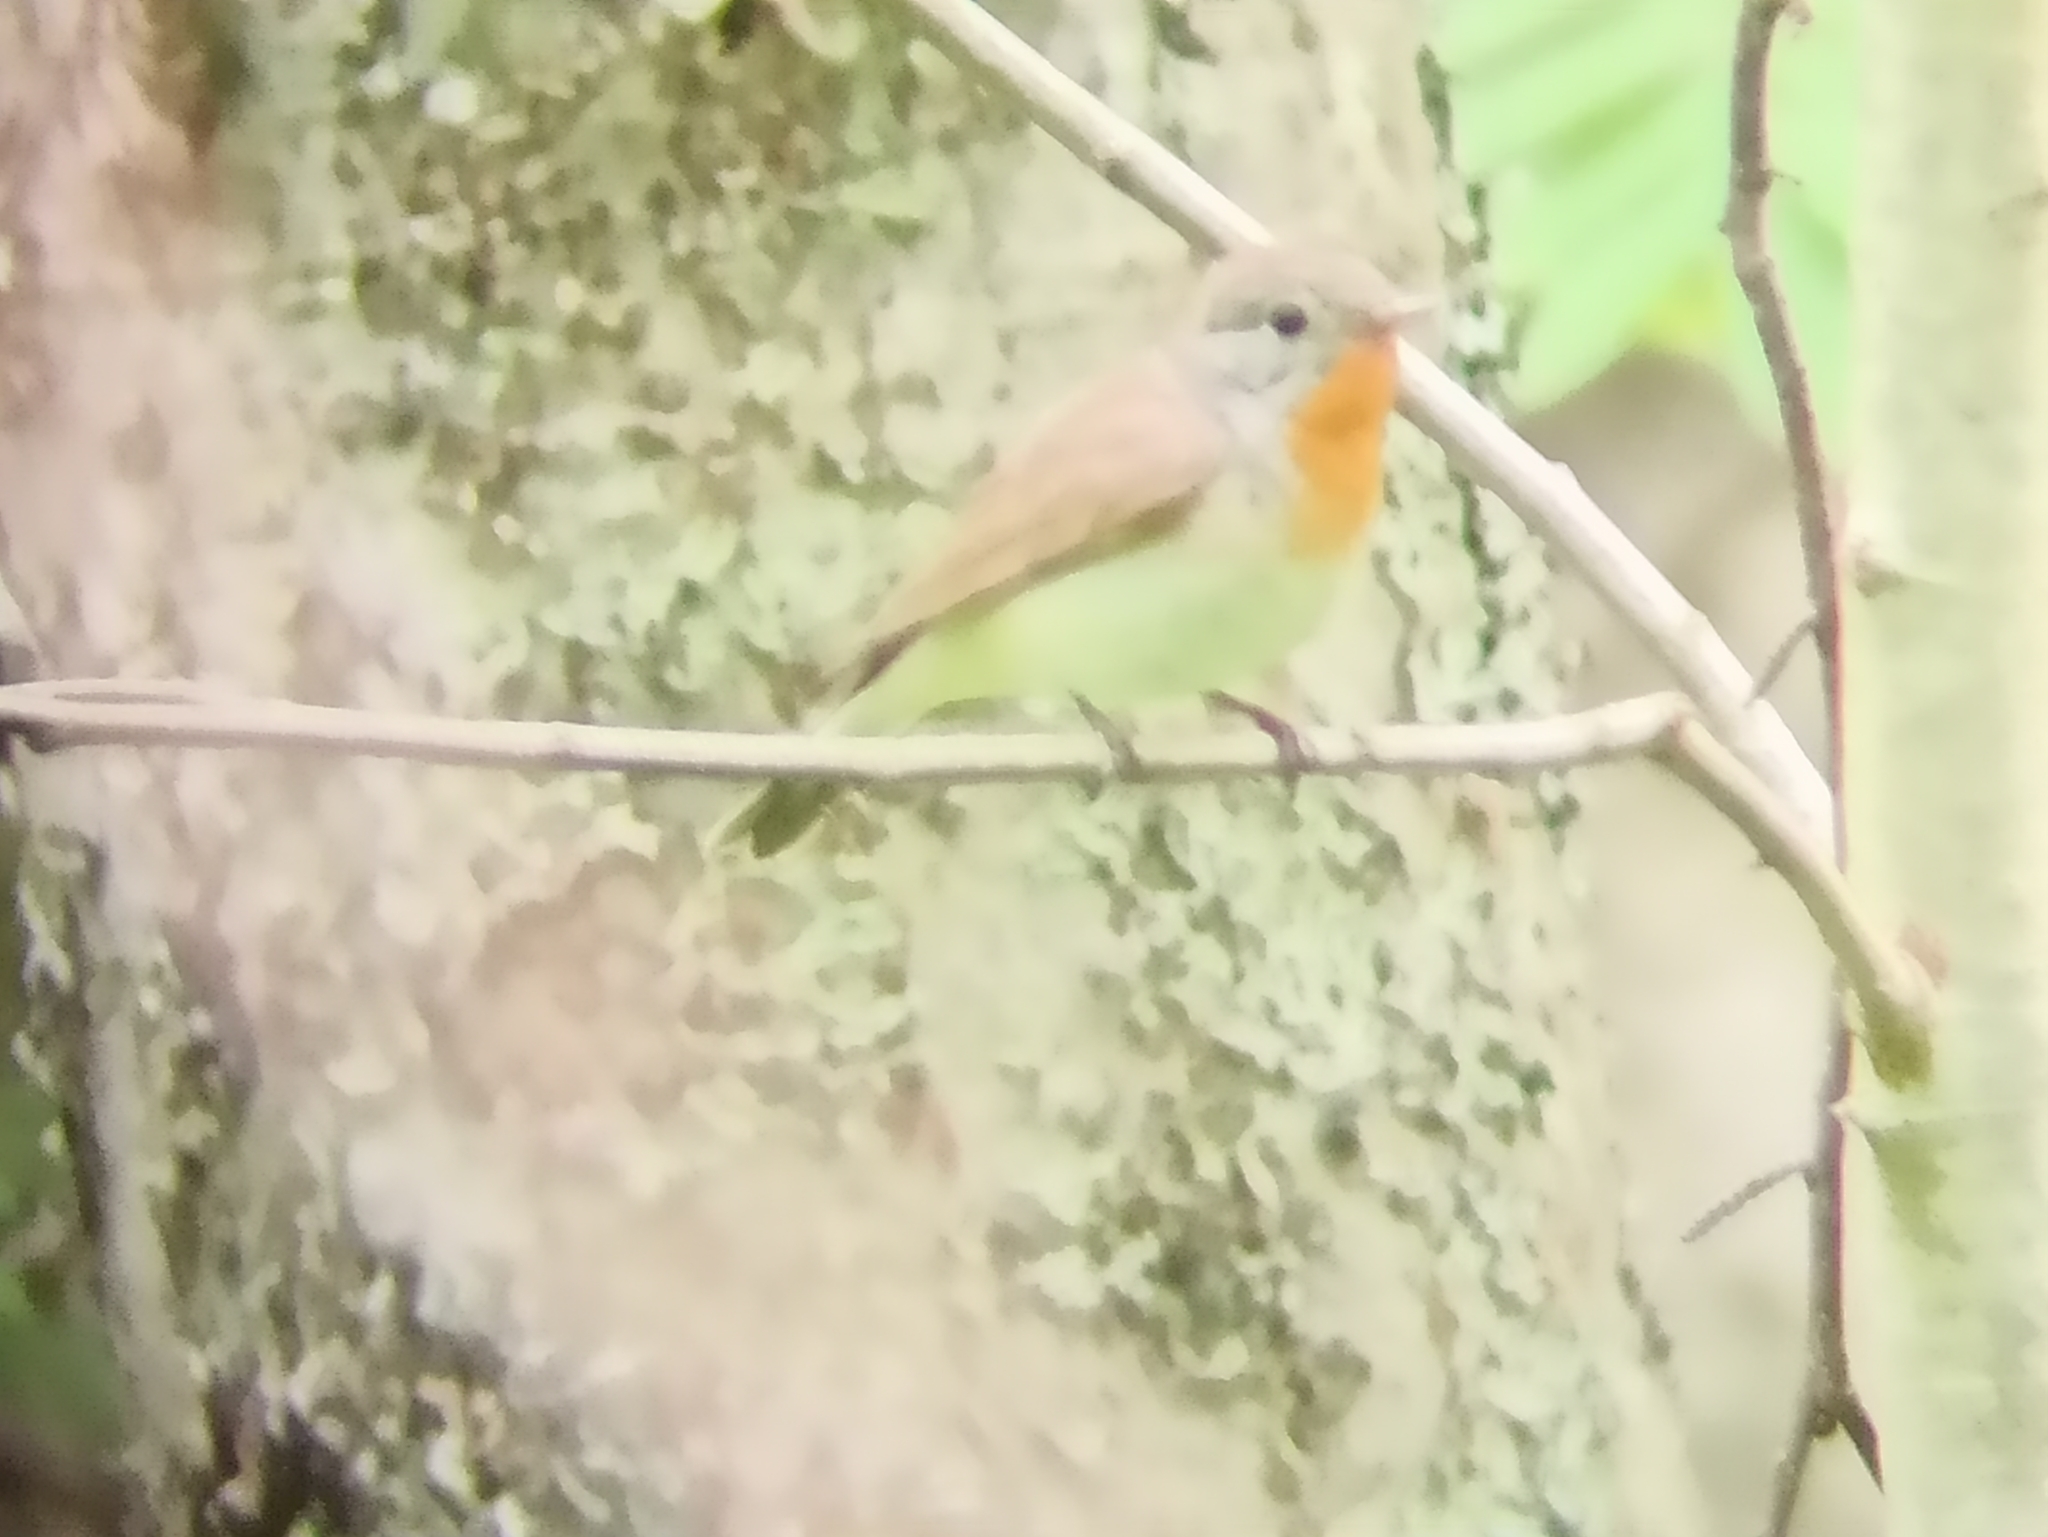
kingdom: Animalia
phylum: Chordata
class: Aves
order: Passeriformes
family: Muscicapidae
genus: Ficedula
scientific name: Ficedula parva
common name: Red-breasted flycatcher
